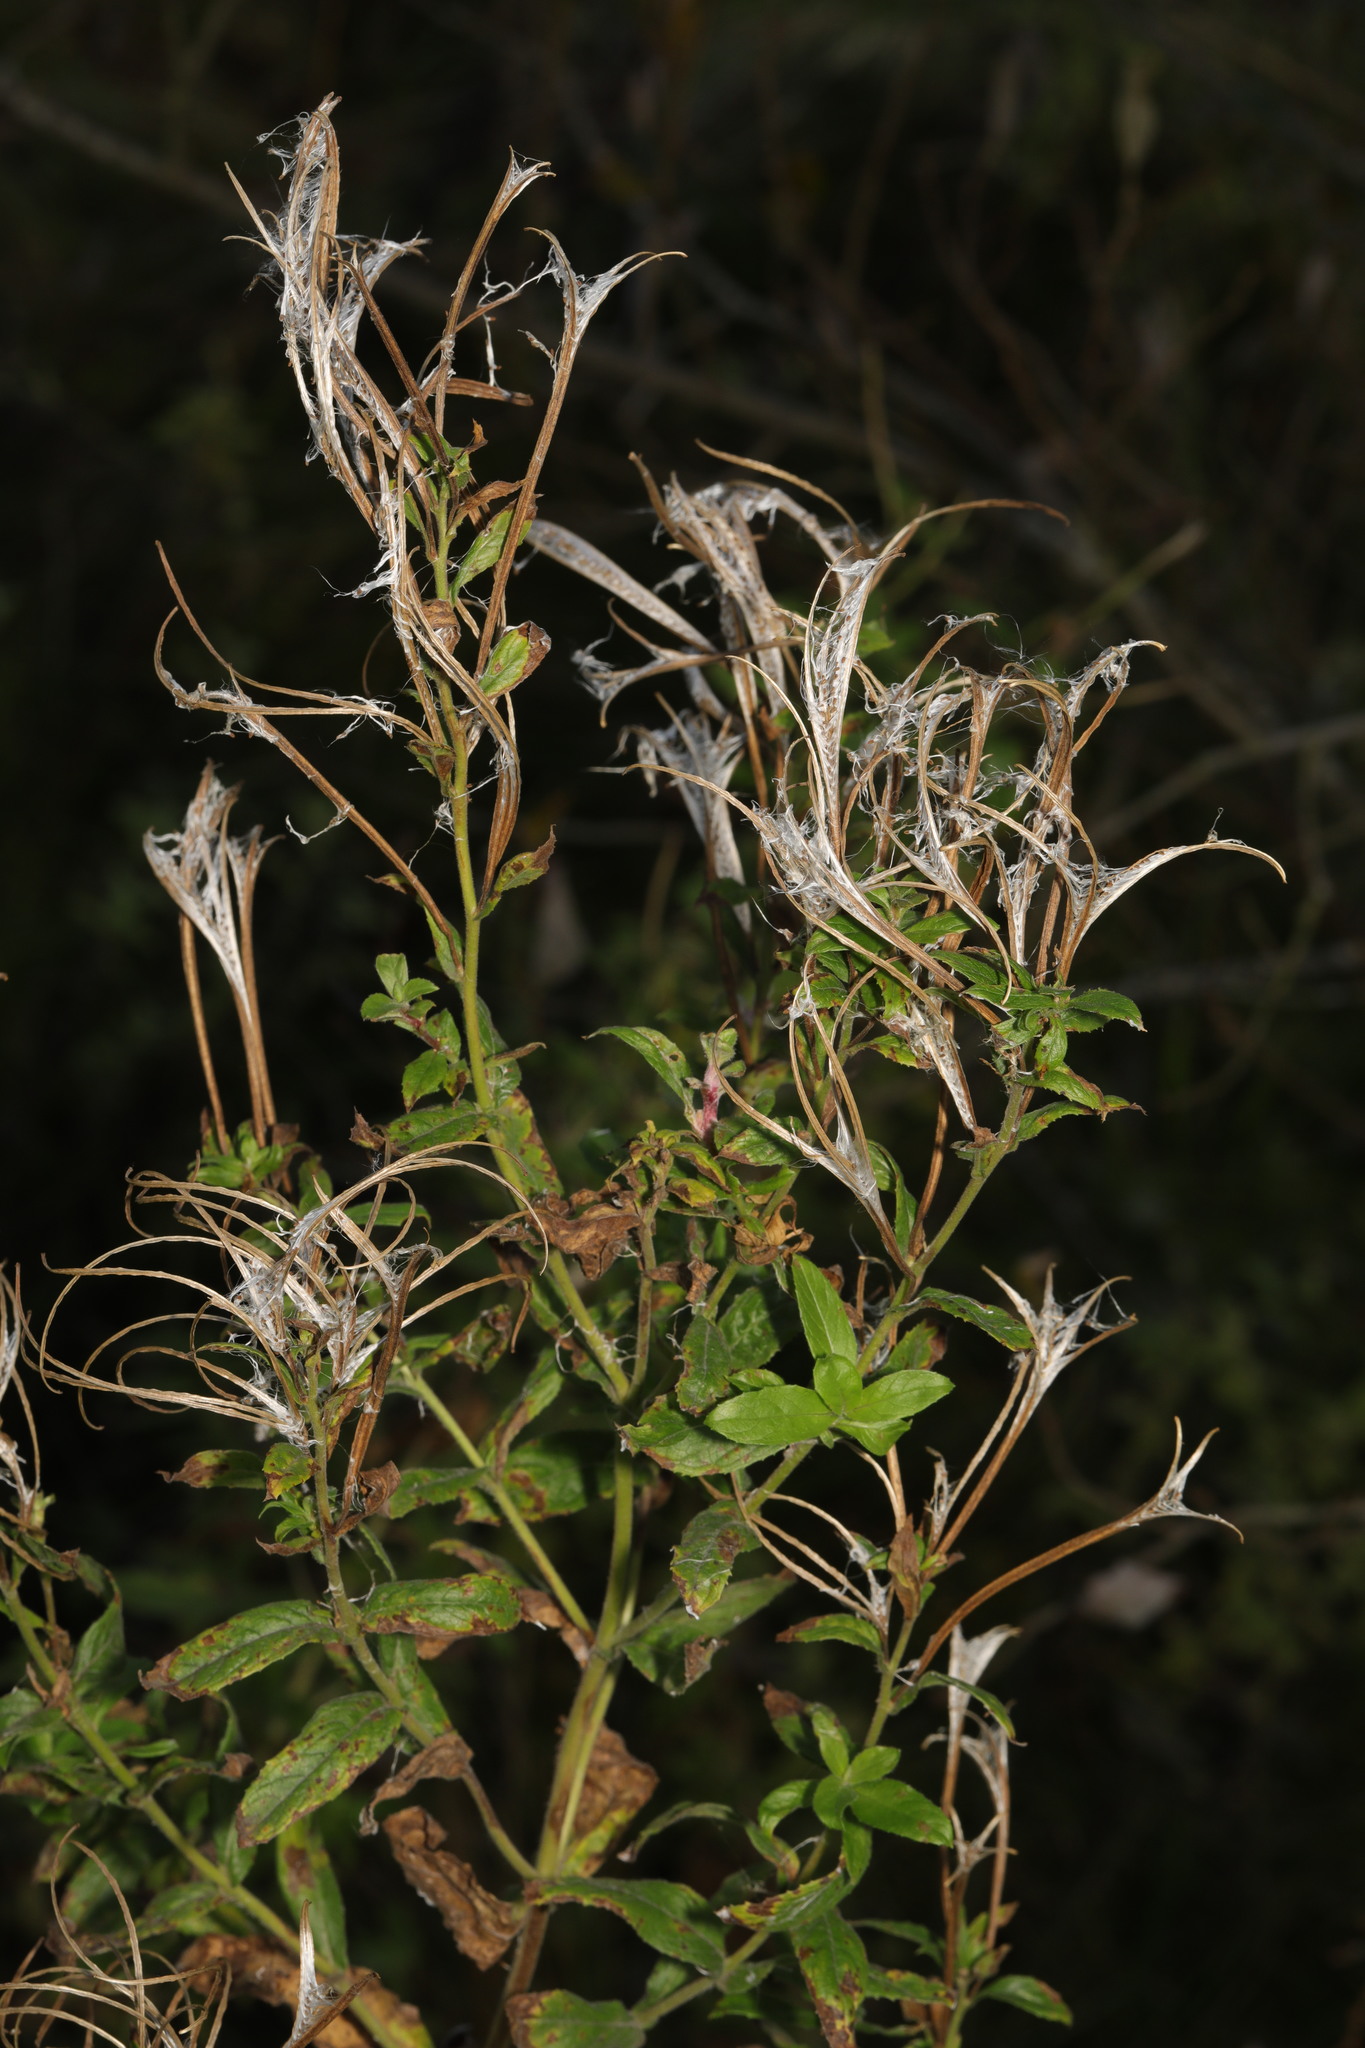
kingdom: Plantae
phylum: Tracheophyta
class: Magnoliopsida
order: Myrtales
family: Onagraceae
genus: Epilobium
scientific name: Epilobium hirsutum
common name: Great willowherb
